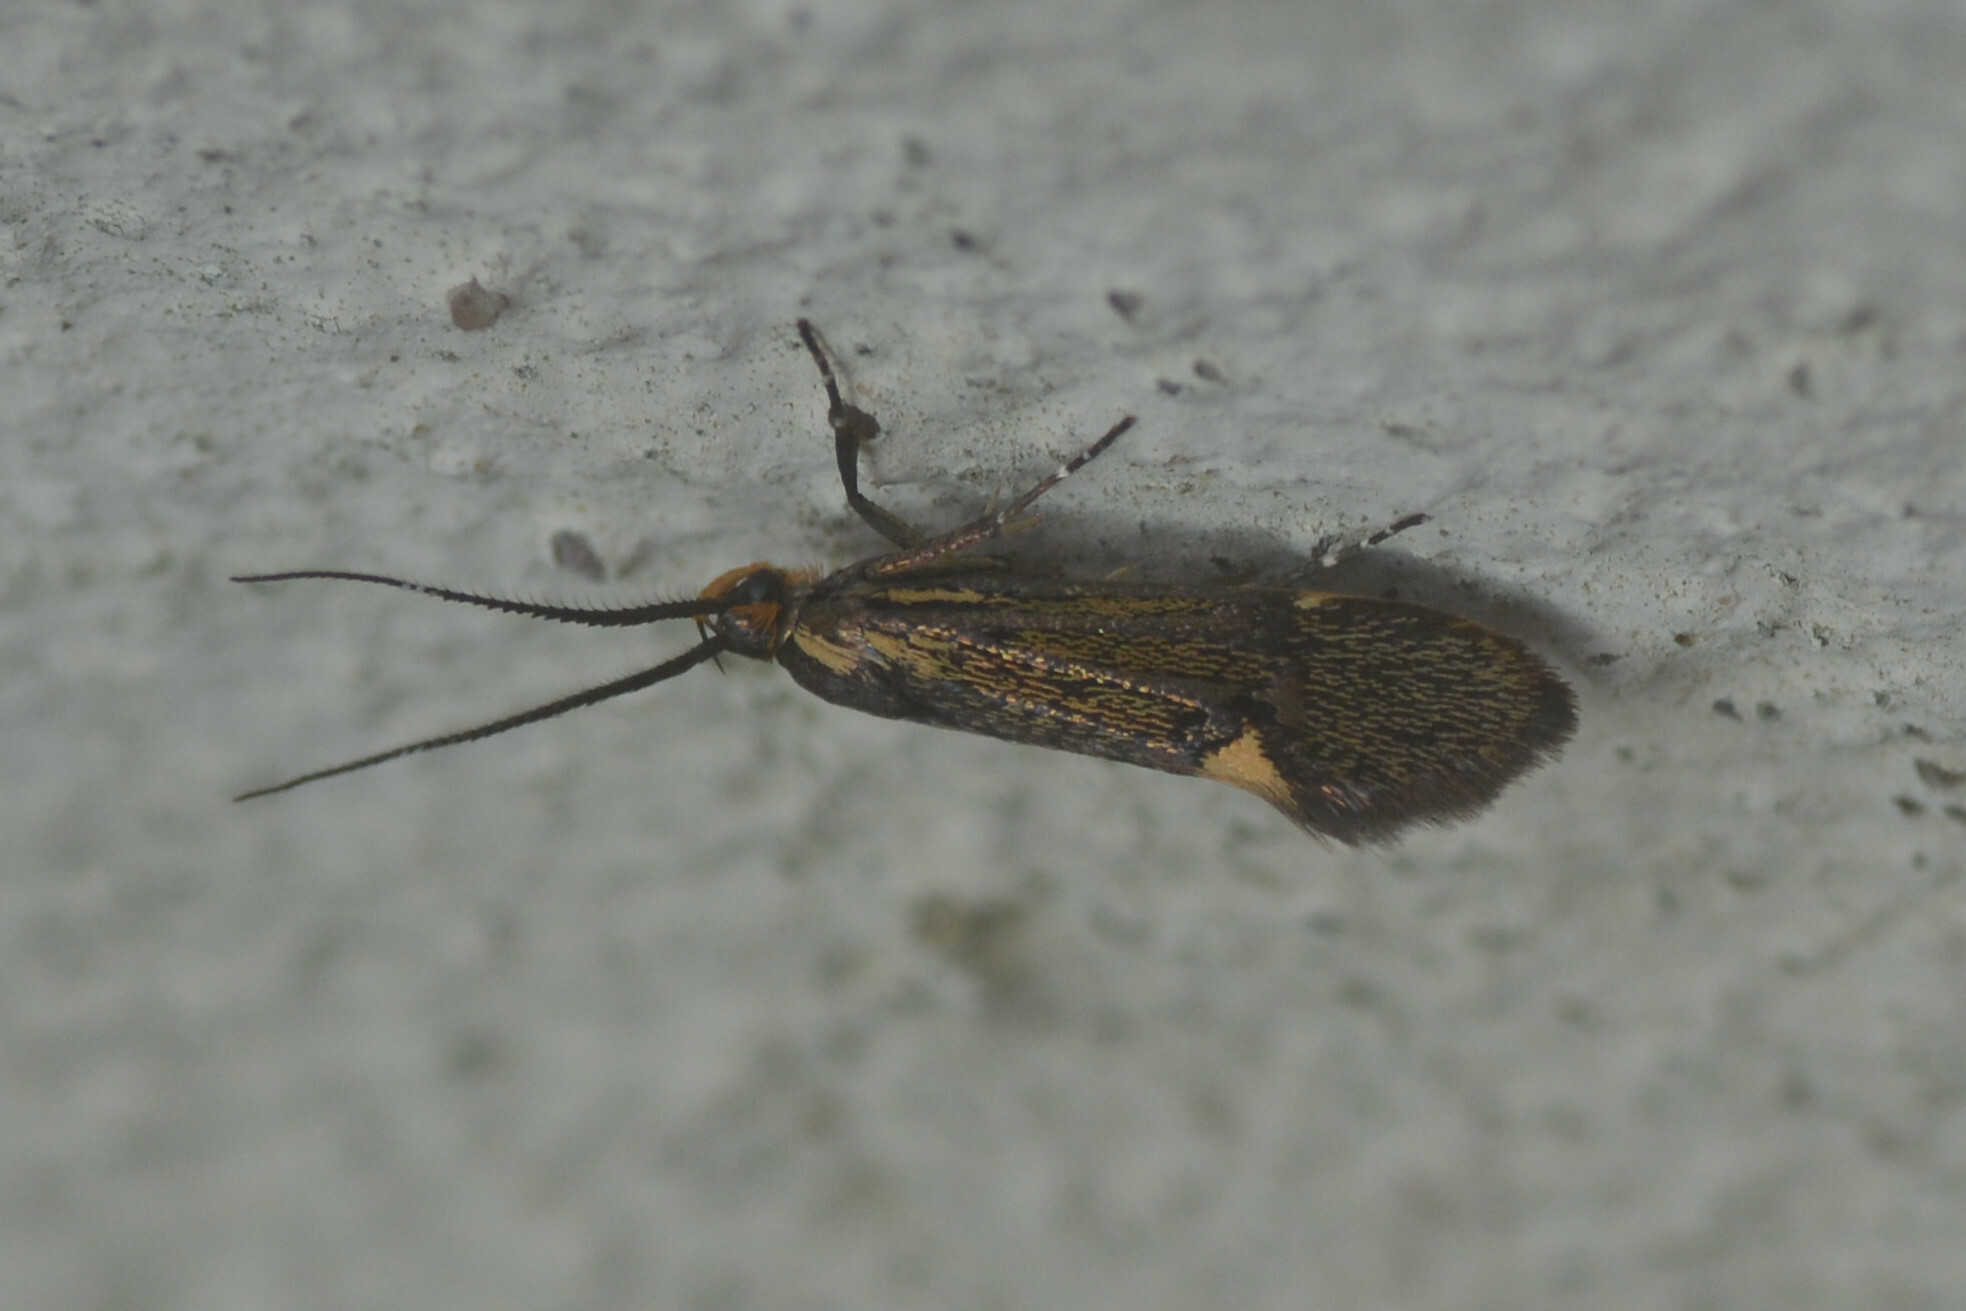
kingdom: Animalia
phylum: Arthropoda
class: Insecta
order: Lepidoptera
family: Oecophoridae
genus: Dafa
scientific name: Dafa Esperia sulphurella
